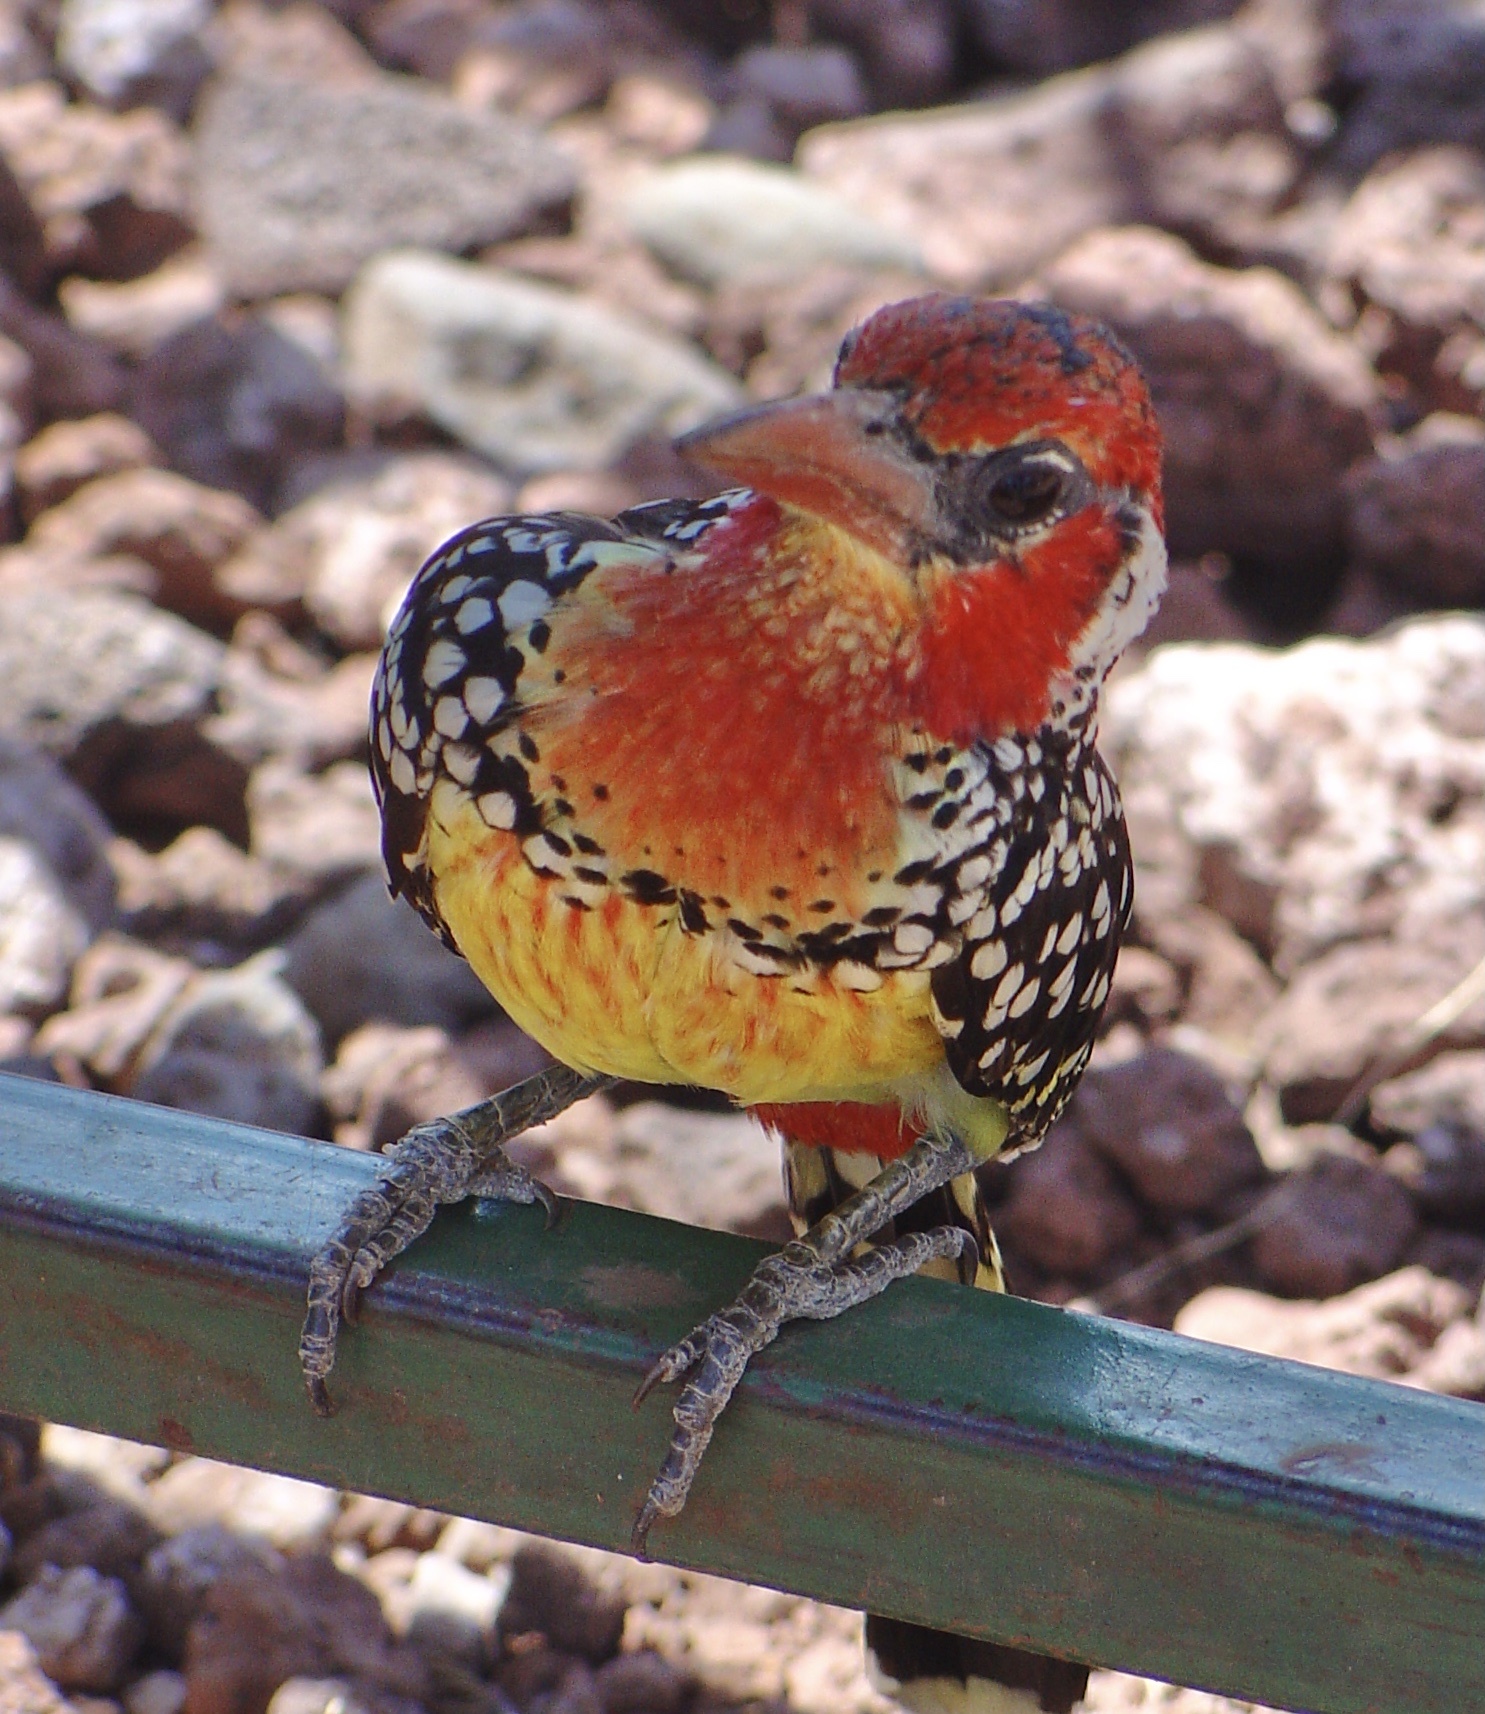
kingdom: Animalia
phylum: Chordata
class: Aves
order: Piciformes
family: Lybiidae
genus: Trachyphonus
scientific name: Trachyphonus erythrocephalus
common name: Red-and-yellow barbet
